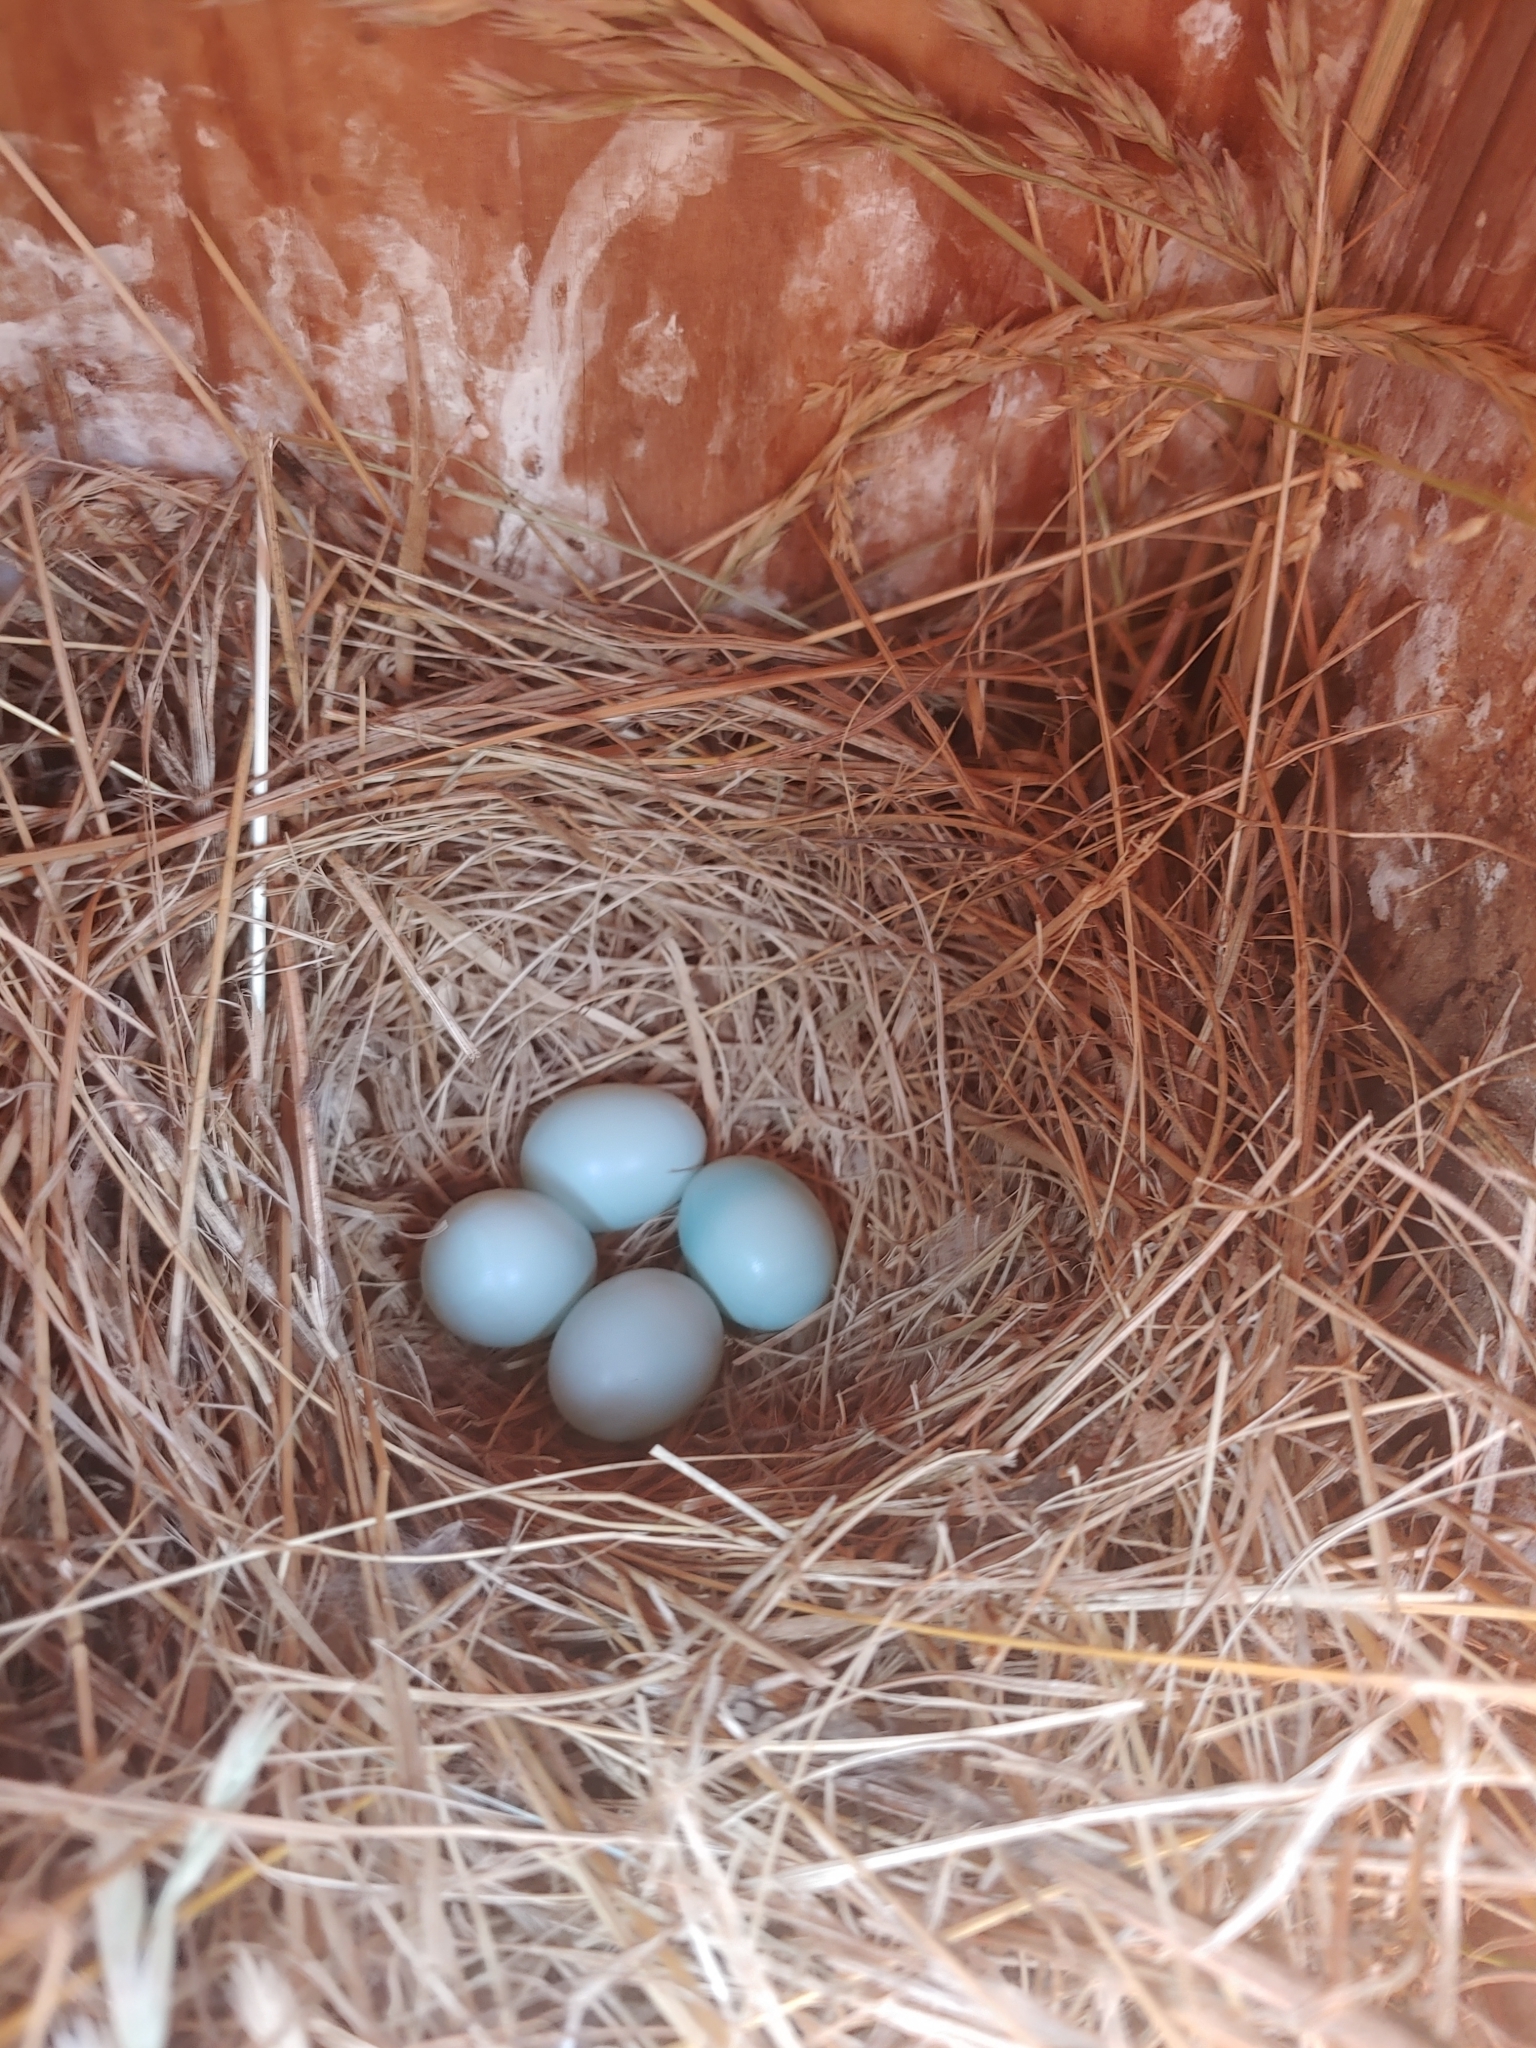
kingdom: Animalia
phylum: Chordata
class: Aves
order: Passeriformes
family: Turdidae
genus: Sialia
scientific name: Sialia sialis
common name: Eastern bluebird
